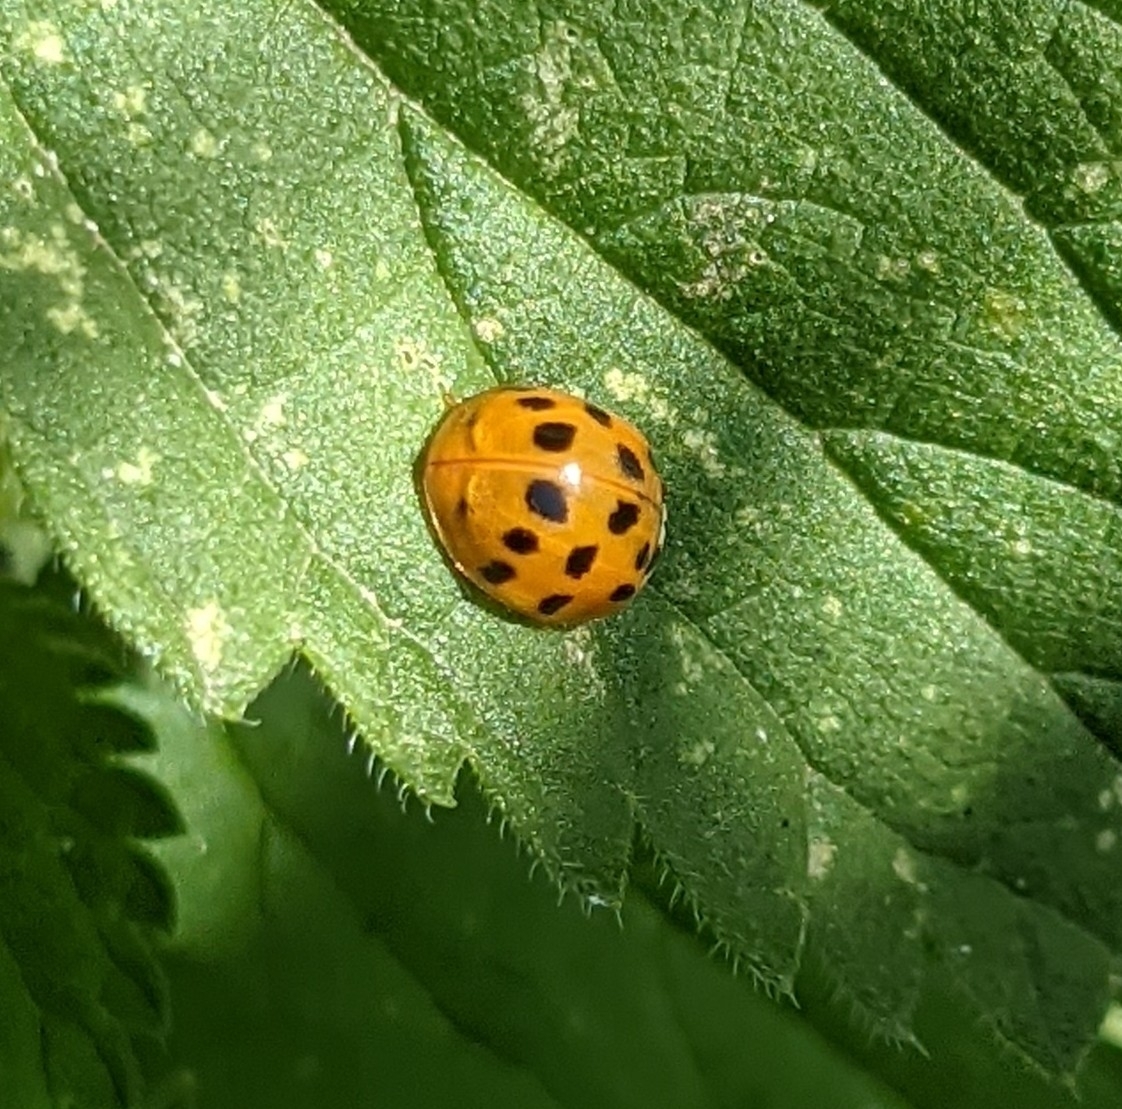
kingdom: Animalia
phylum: Arthropoda
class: Insecta
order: Coleoptera
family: Coccinellidae
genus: Harmonia
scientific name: Harmonia axyridis
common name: Harlequin ladybird
